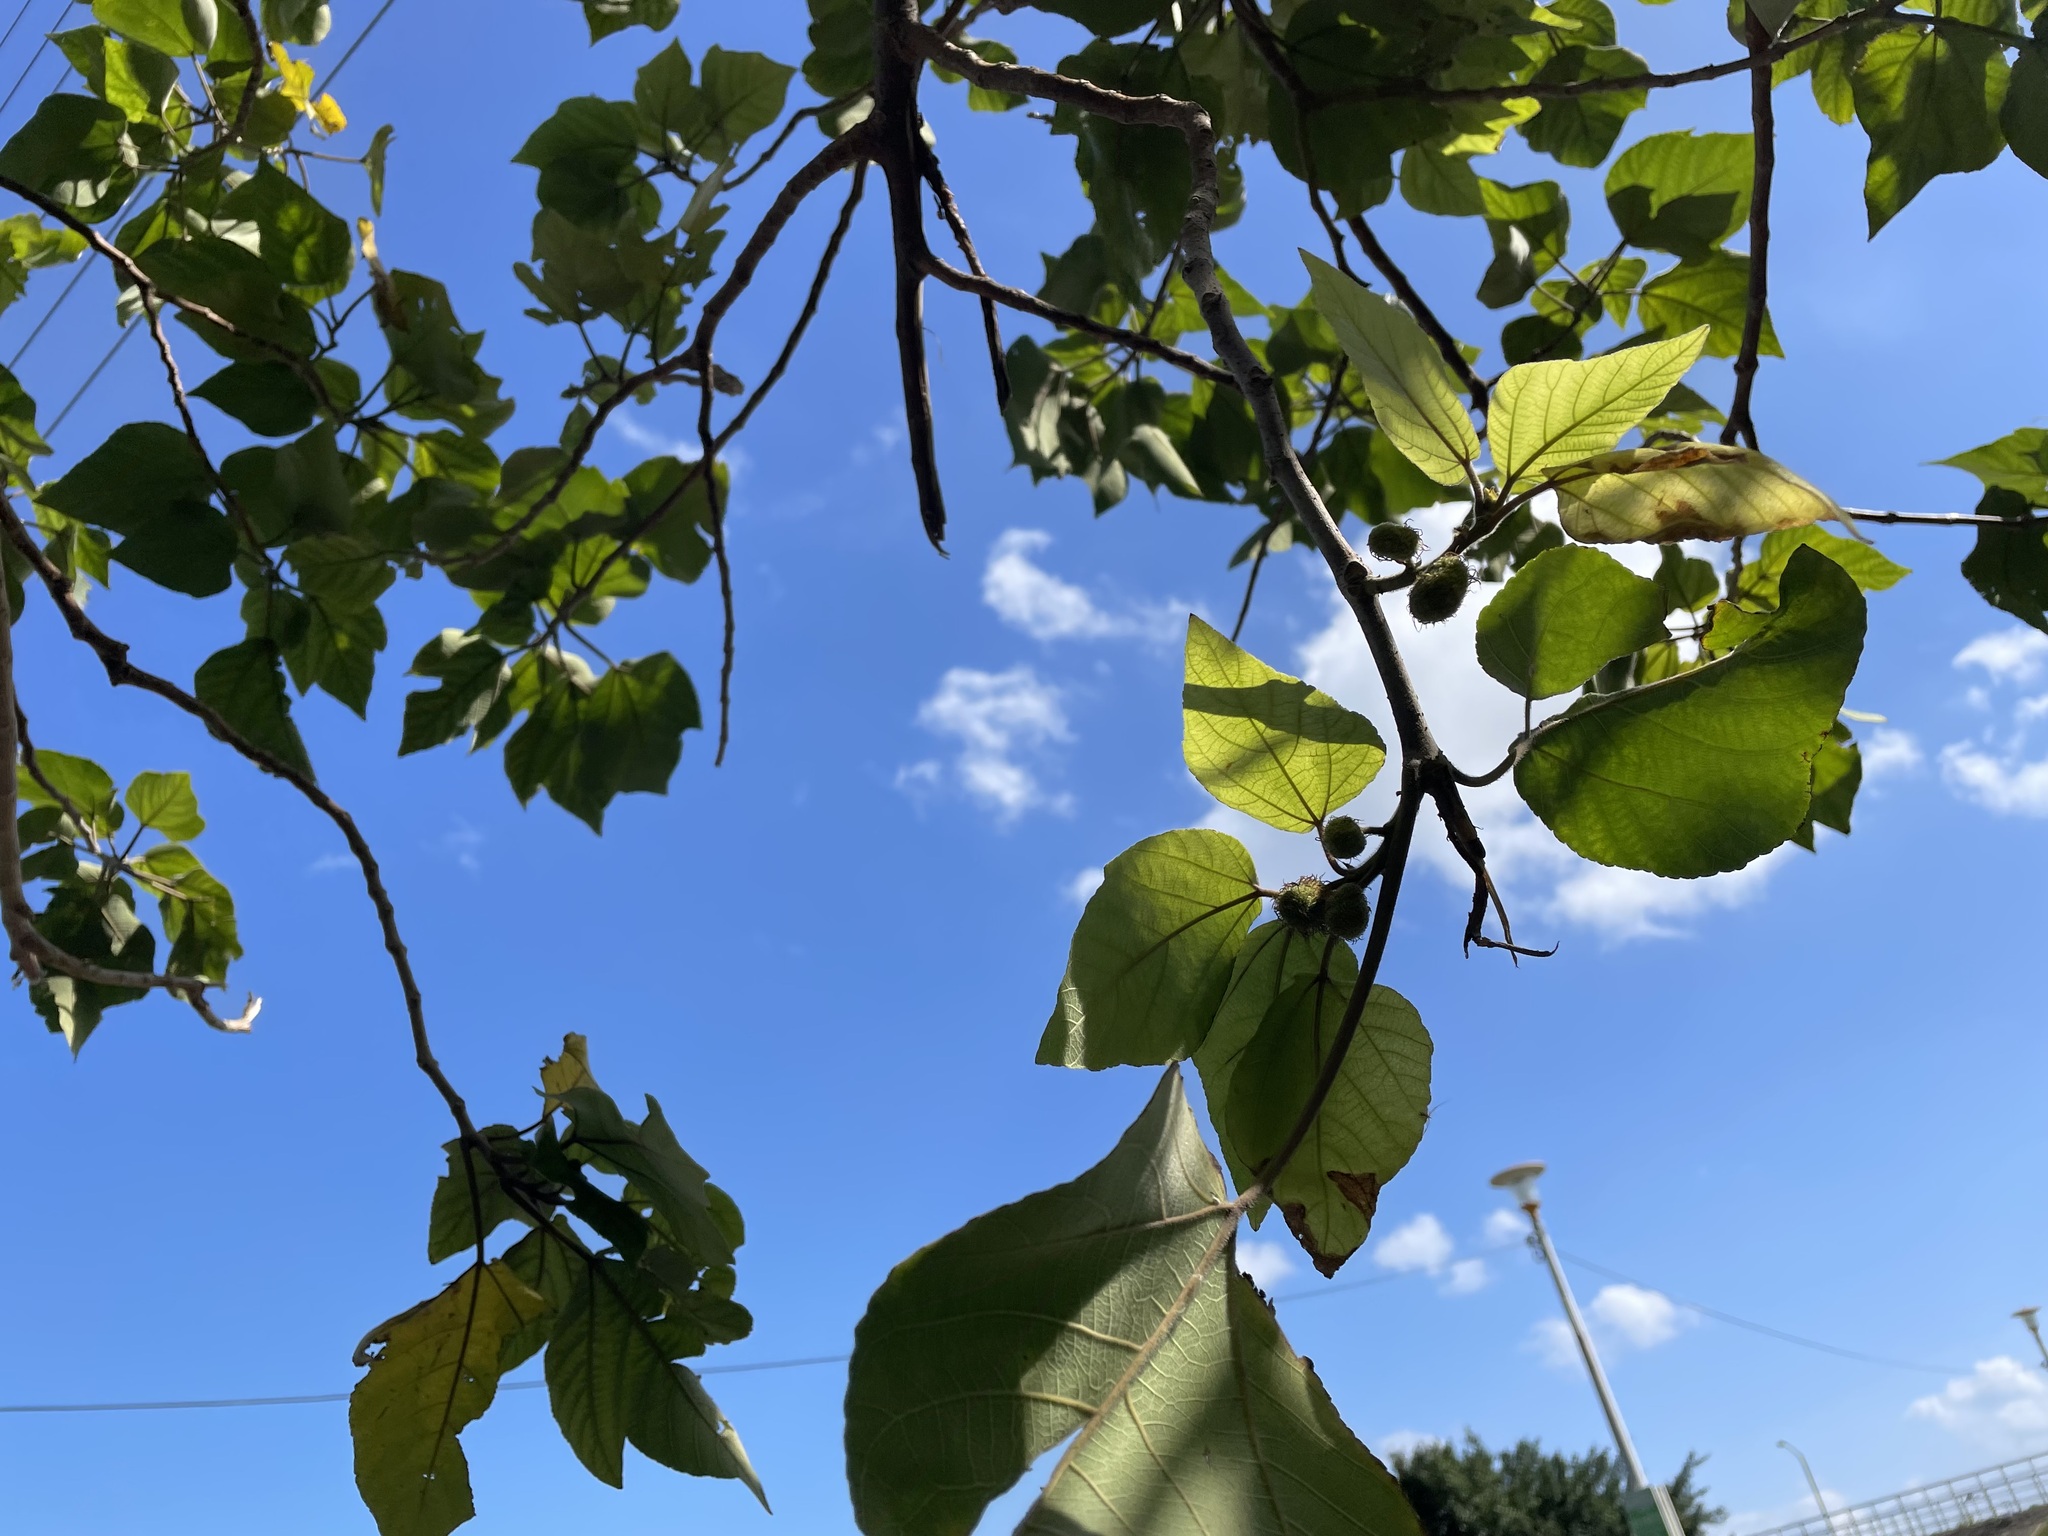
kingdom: Plantae
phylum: Tracheophyta
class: Magnoliopsida
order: Rosales
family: Moraceae
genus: Broussonetia
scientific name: Broussonetia papyrifera
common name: Paper mulberry
